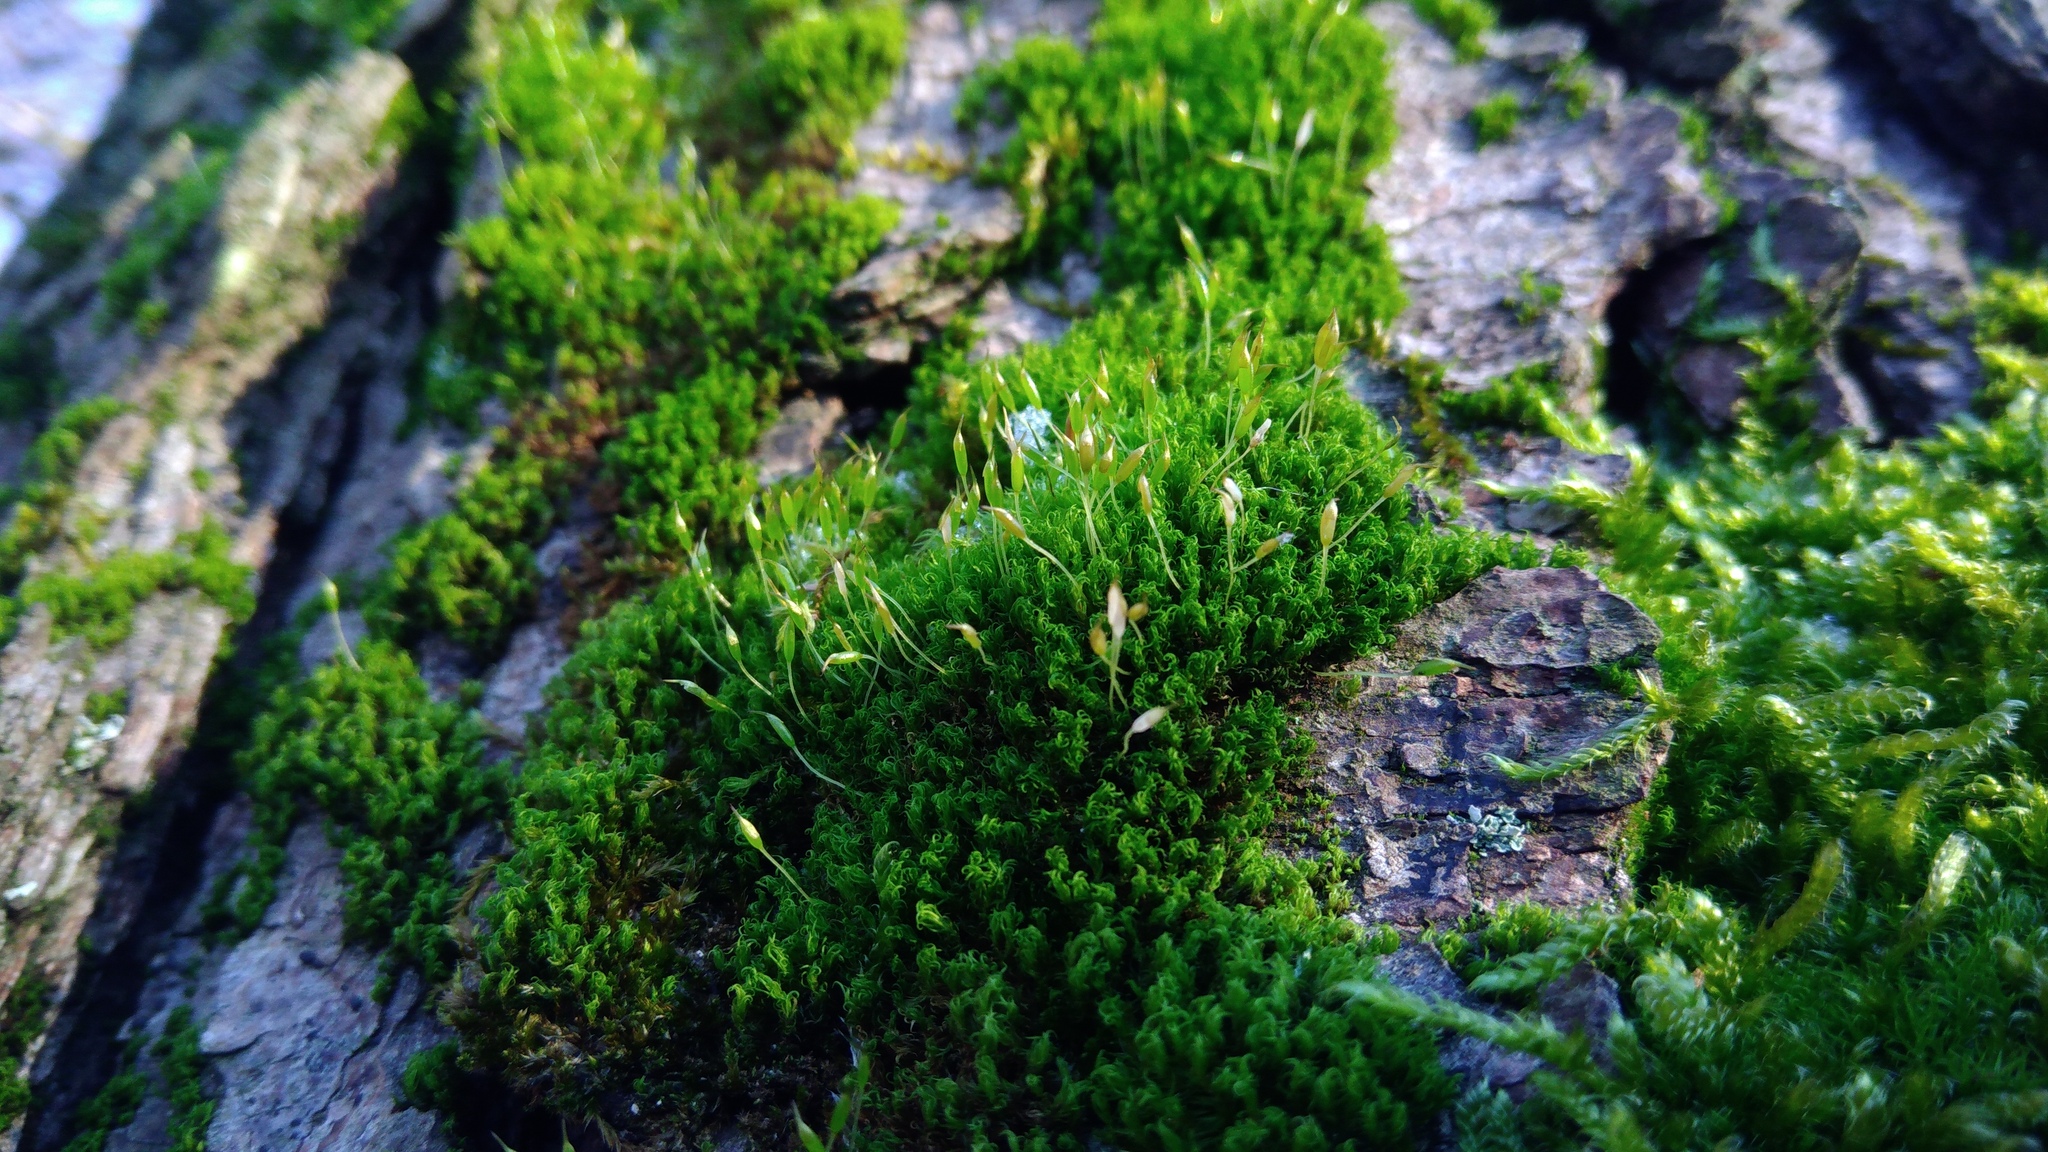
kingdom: Plantae
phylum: Bryophyta
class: Bryopsida
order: Dicranales
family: Rhabdoweisiaceae
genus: Dicranoweisia
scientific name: Dicranoweisia cirrata
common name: Common pincushion
